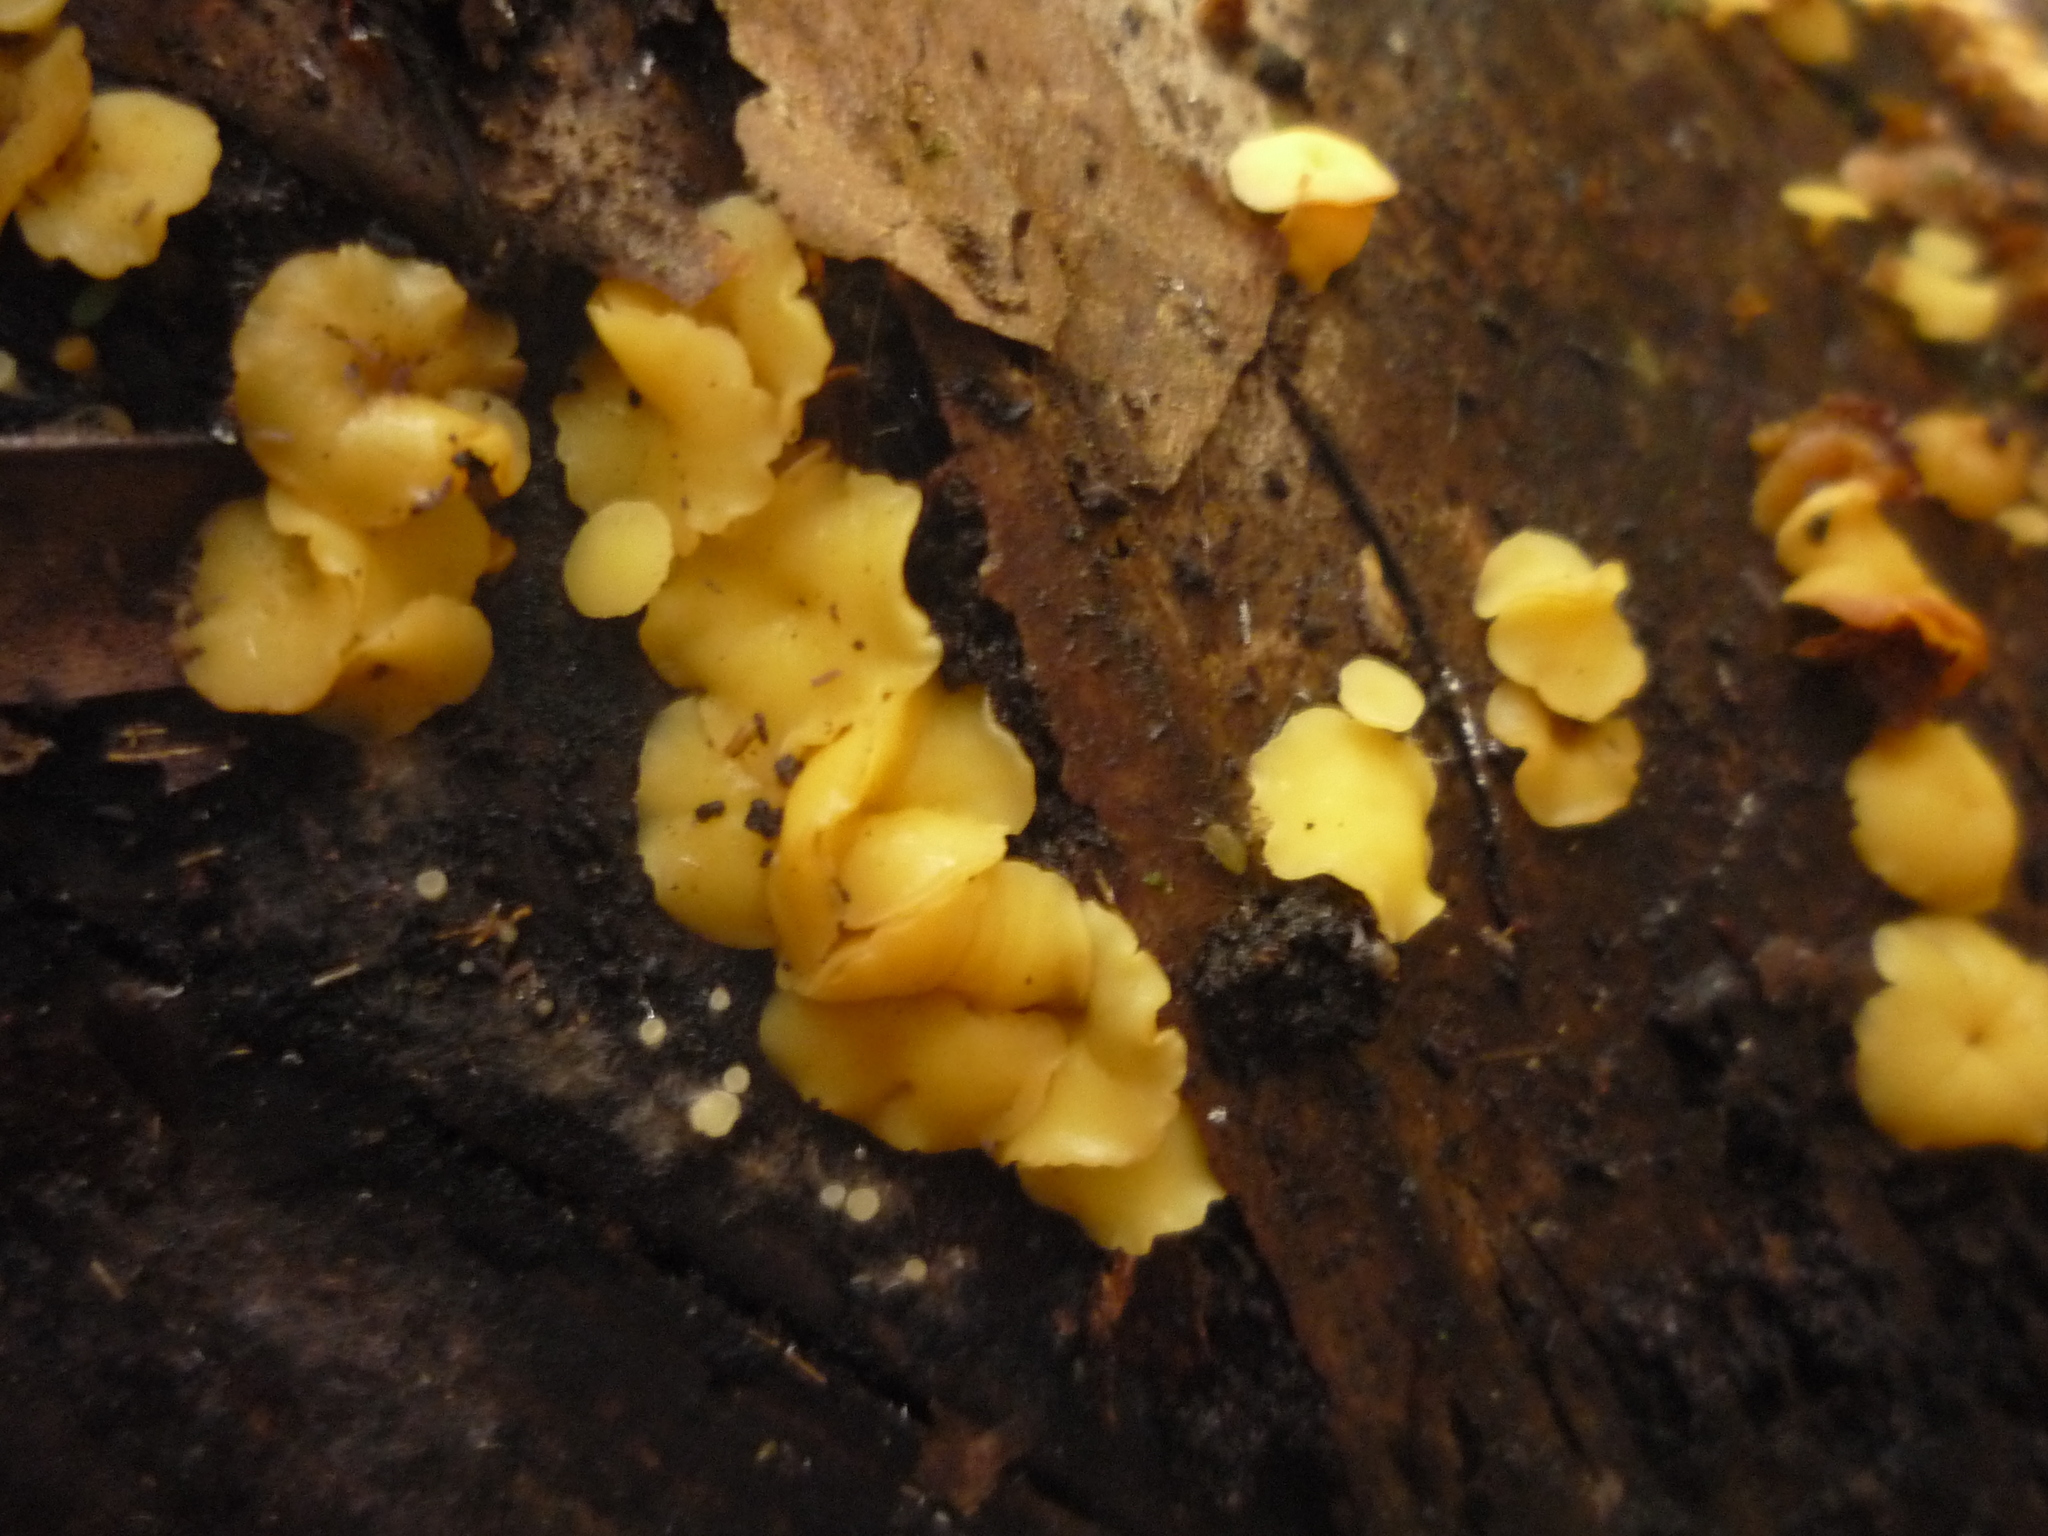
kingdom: Fungi
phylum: Ascomycota
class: Leotiomycetes
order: Helotiales
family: Pezizellaceae
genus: Calycina
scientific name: Calycina citrina
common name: Yellow fairy cups
